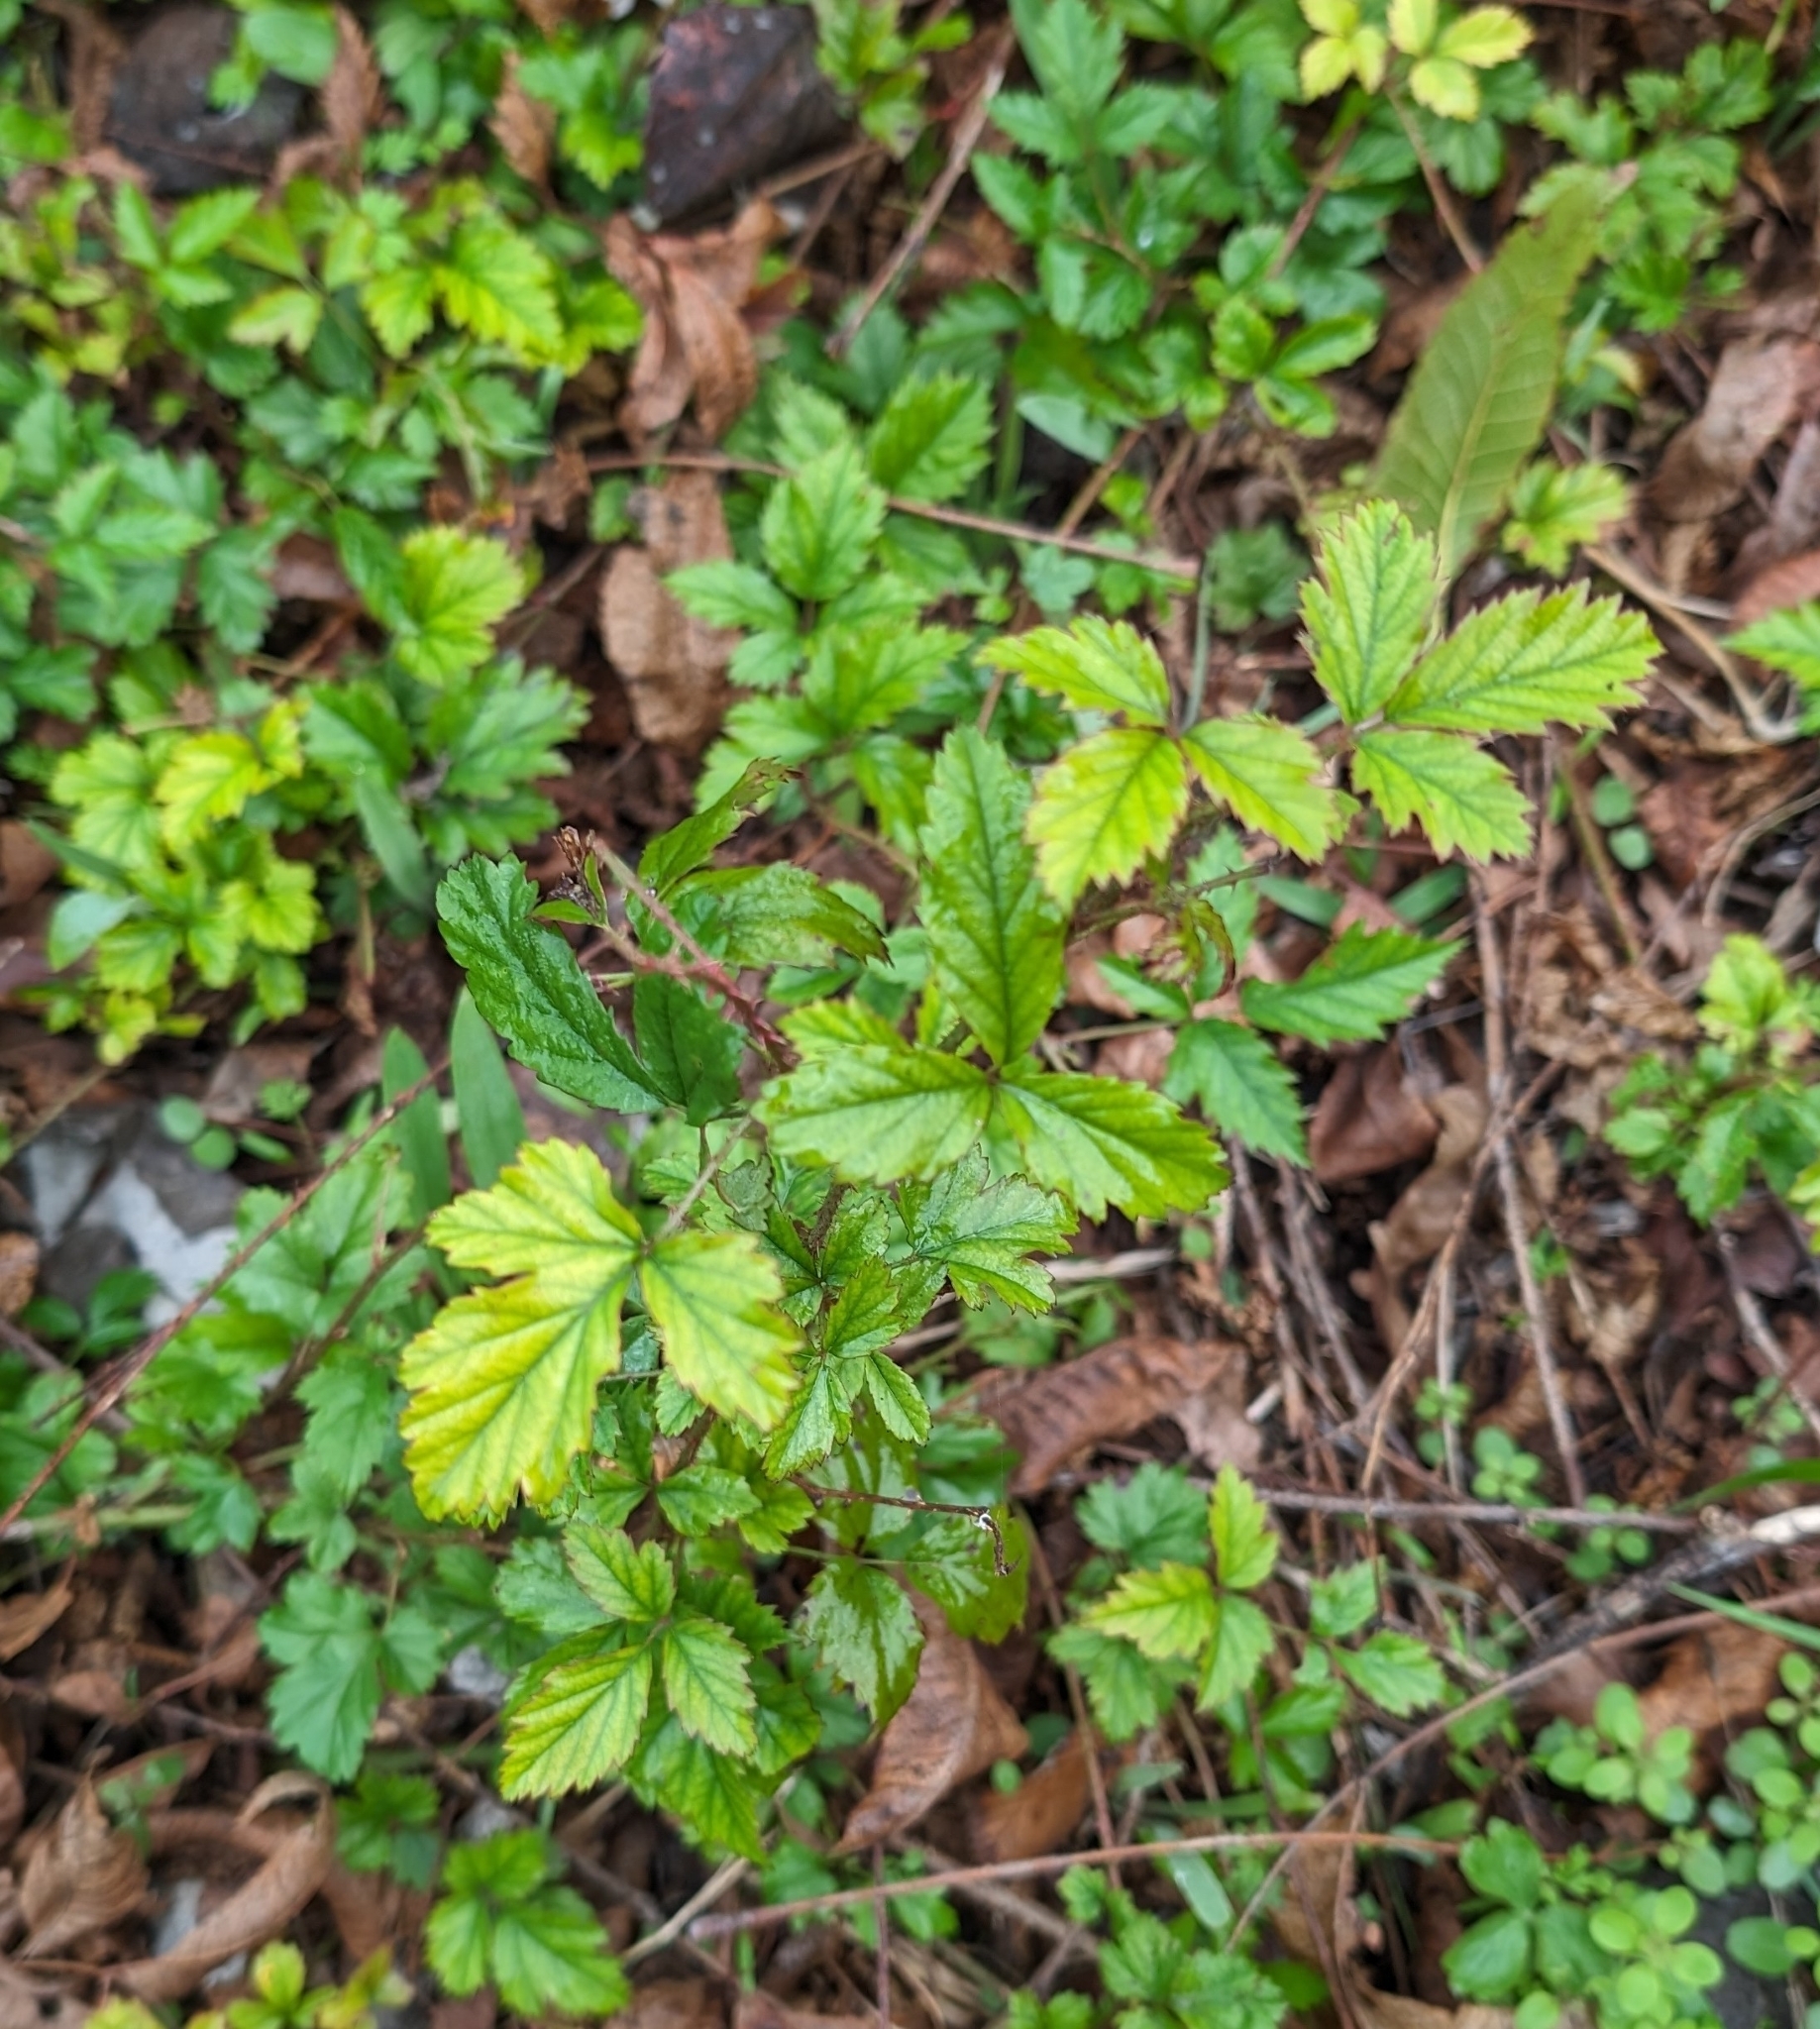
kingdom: Plantae
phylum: Tracheophyta
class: Magnoliopsida
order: Rosales
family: Rosaceae
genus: Rubus
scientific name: Rubus trivialis
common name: Southern dewberry
